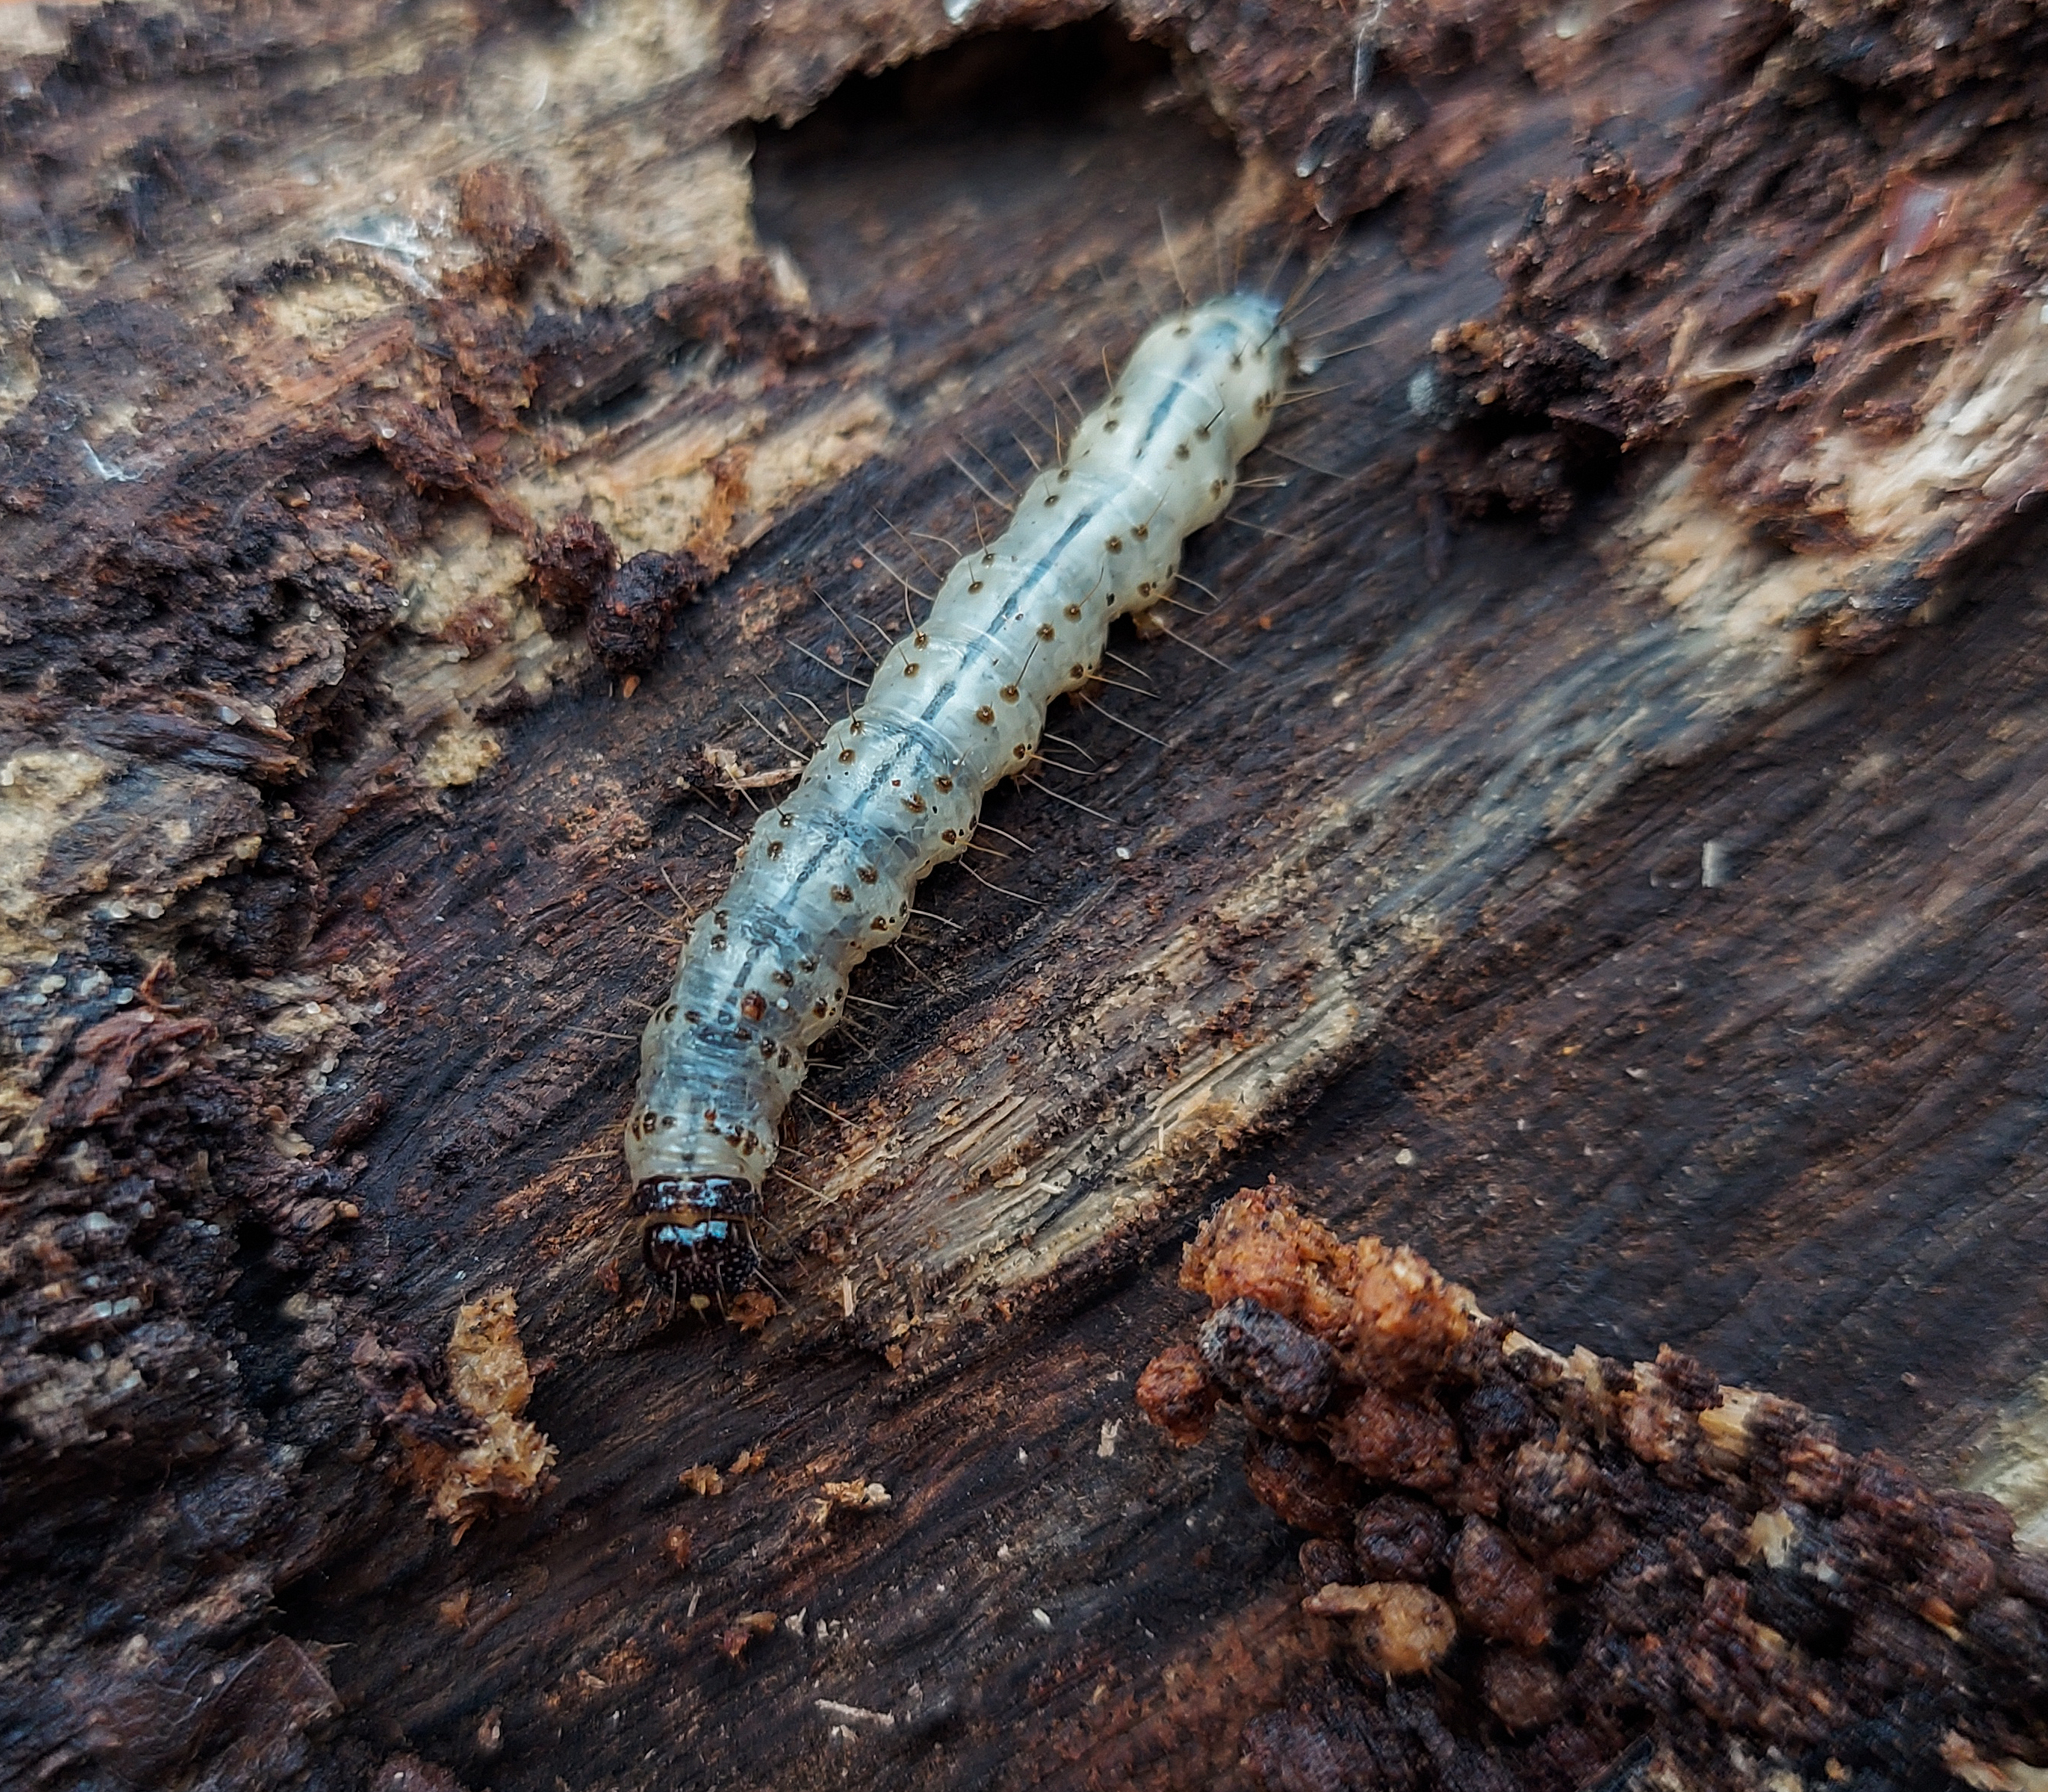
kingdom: Animalia
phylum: Arthropoda
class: Insecta
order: Lepidoptera
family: Erebidae
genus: Scolecocampa
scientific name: Scolecocampa liburna
